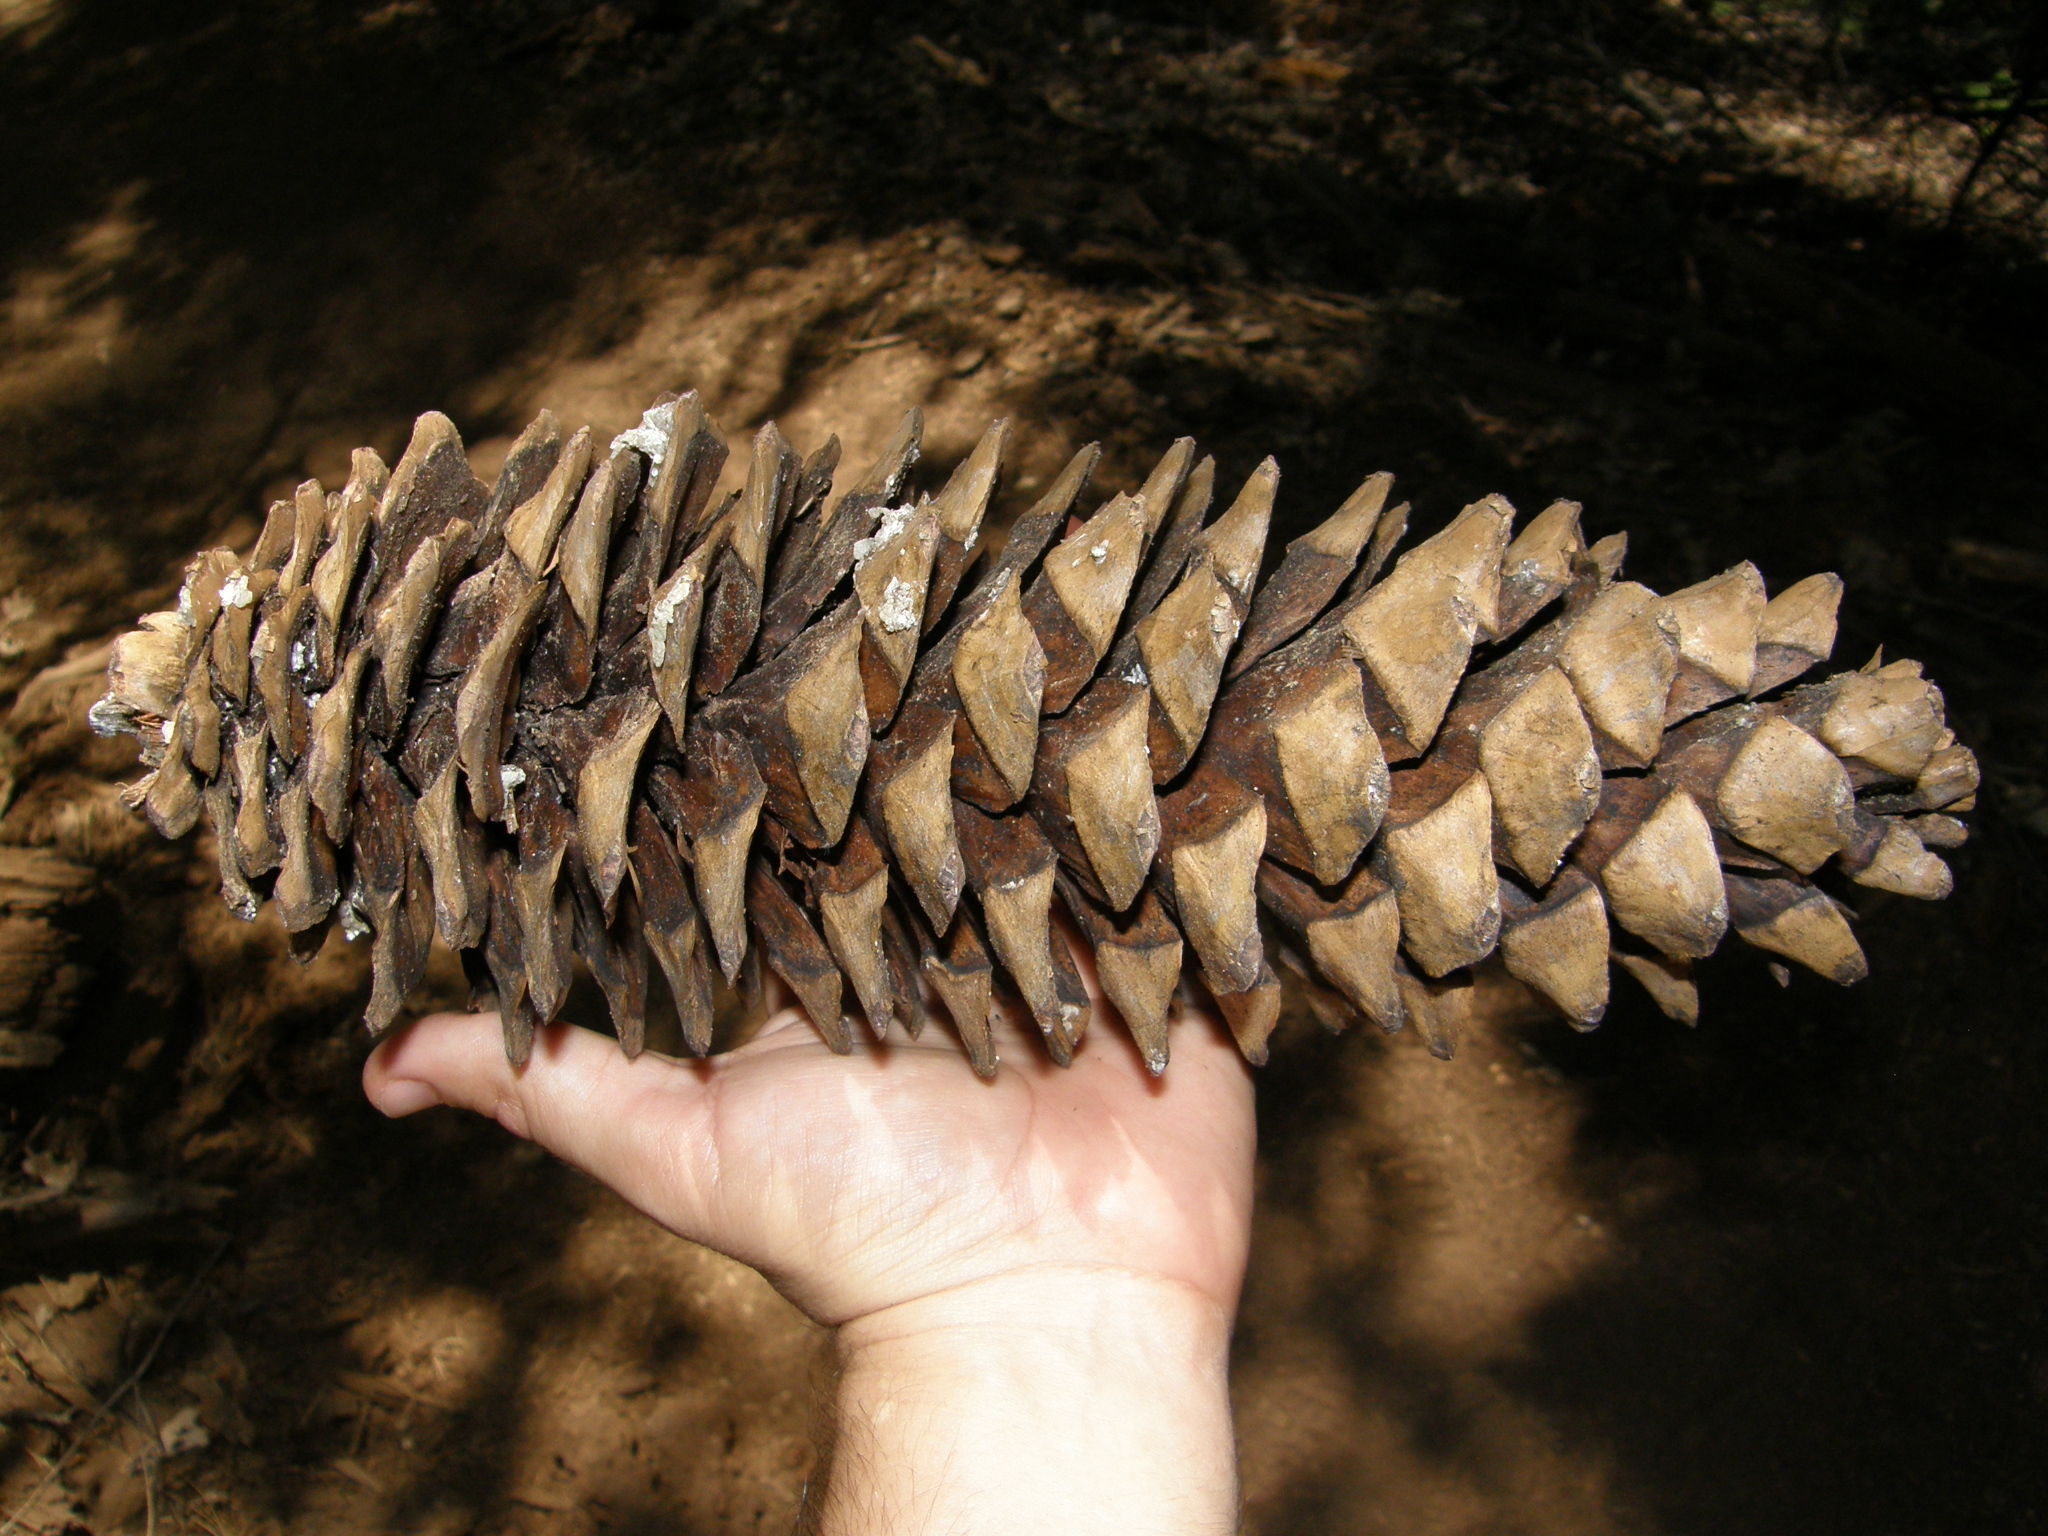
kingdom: Plantae
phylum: Tracheophyta
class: Pinopsida
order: Pinales
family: Pinaceae
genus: Pinus
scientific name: Pinus lambertiana
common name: Sugar pine
